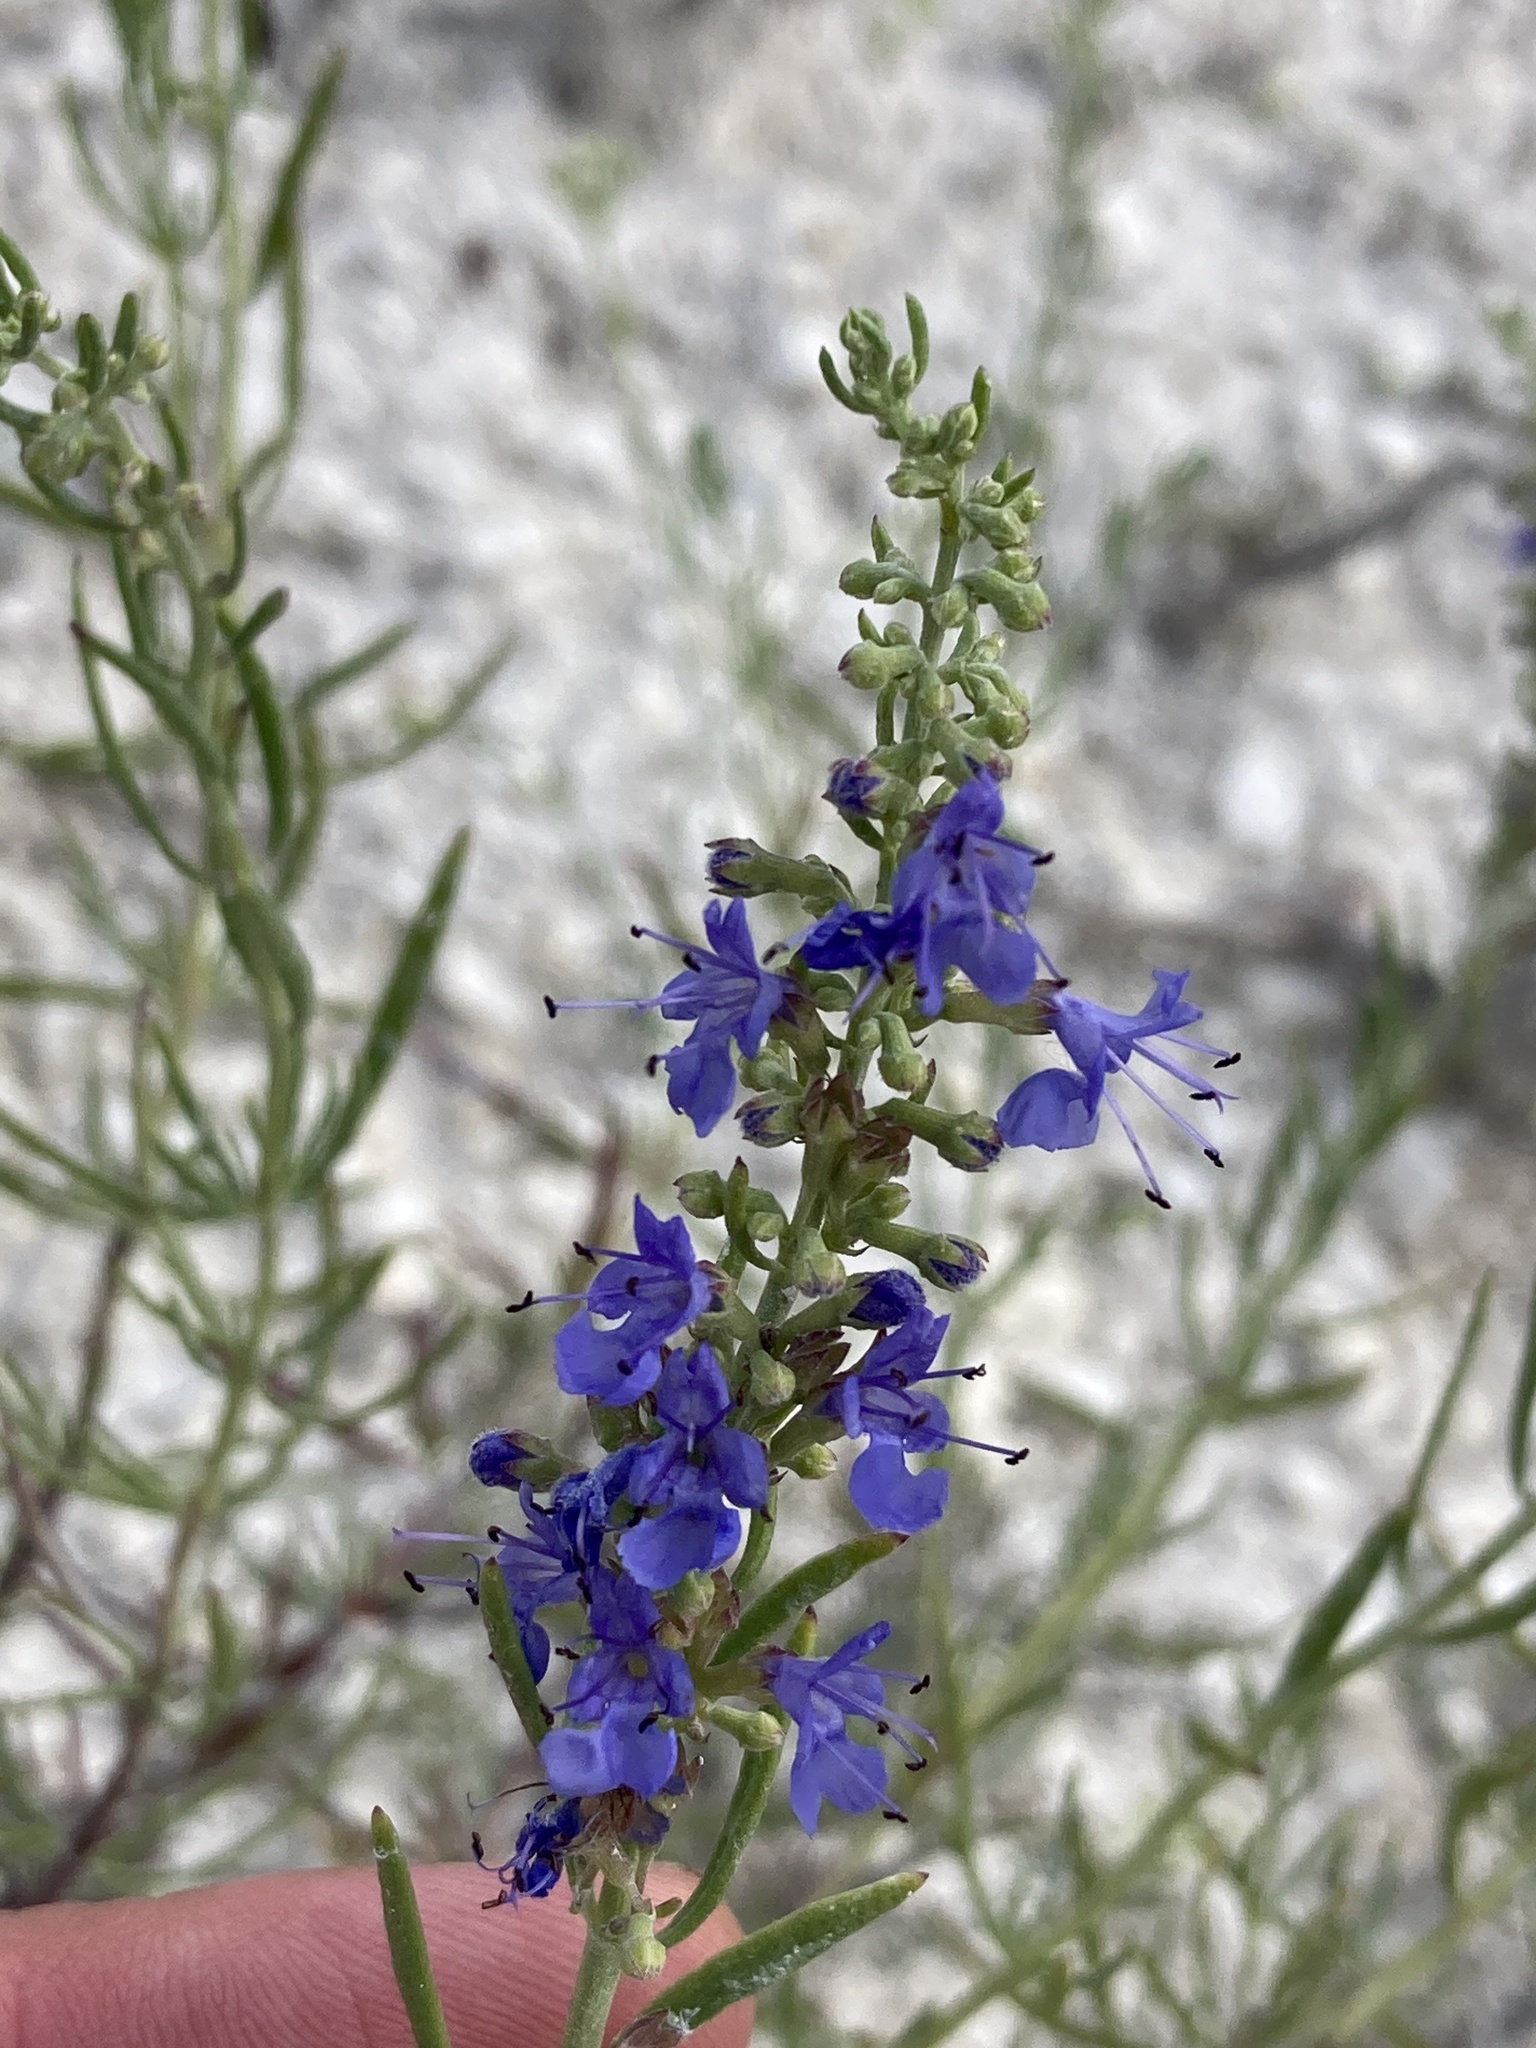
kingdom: Plantae
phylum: Tracheophyta
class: Magnoliopsida
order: Lamiales
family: Lamiaceae
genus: Hyssopus
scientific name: Hyssopus officinalis
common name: Hyssop
